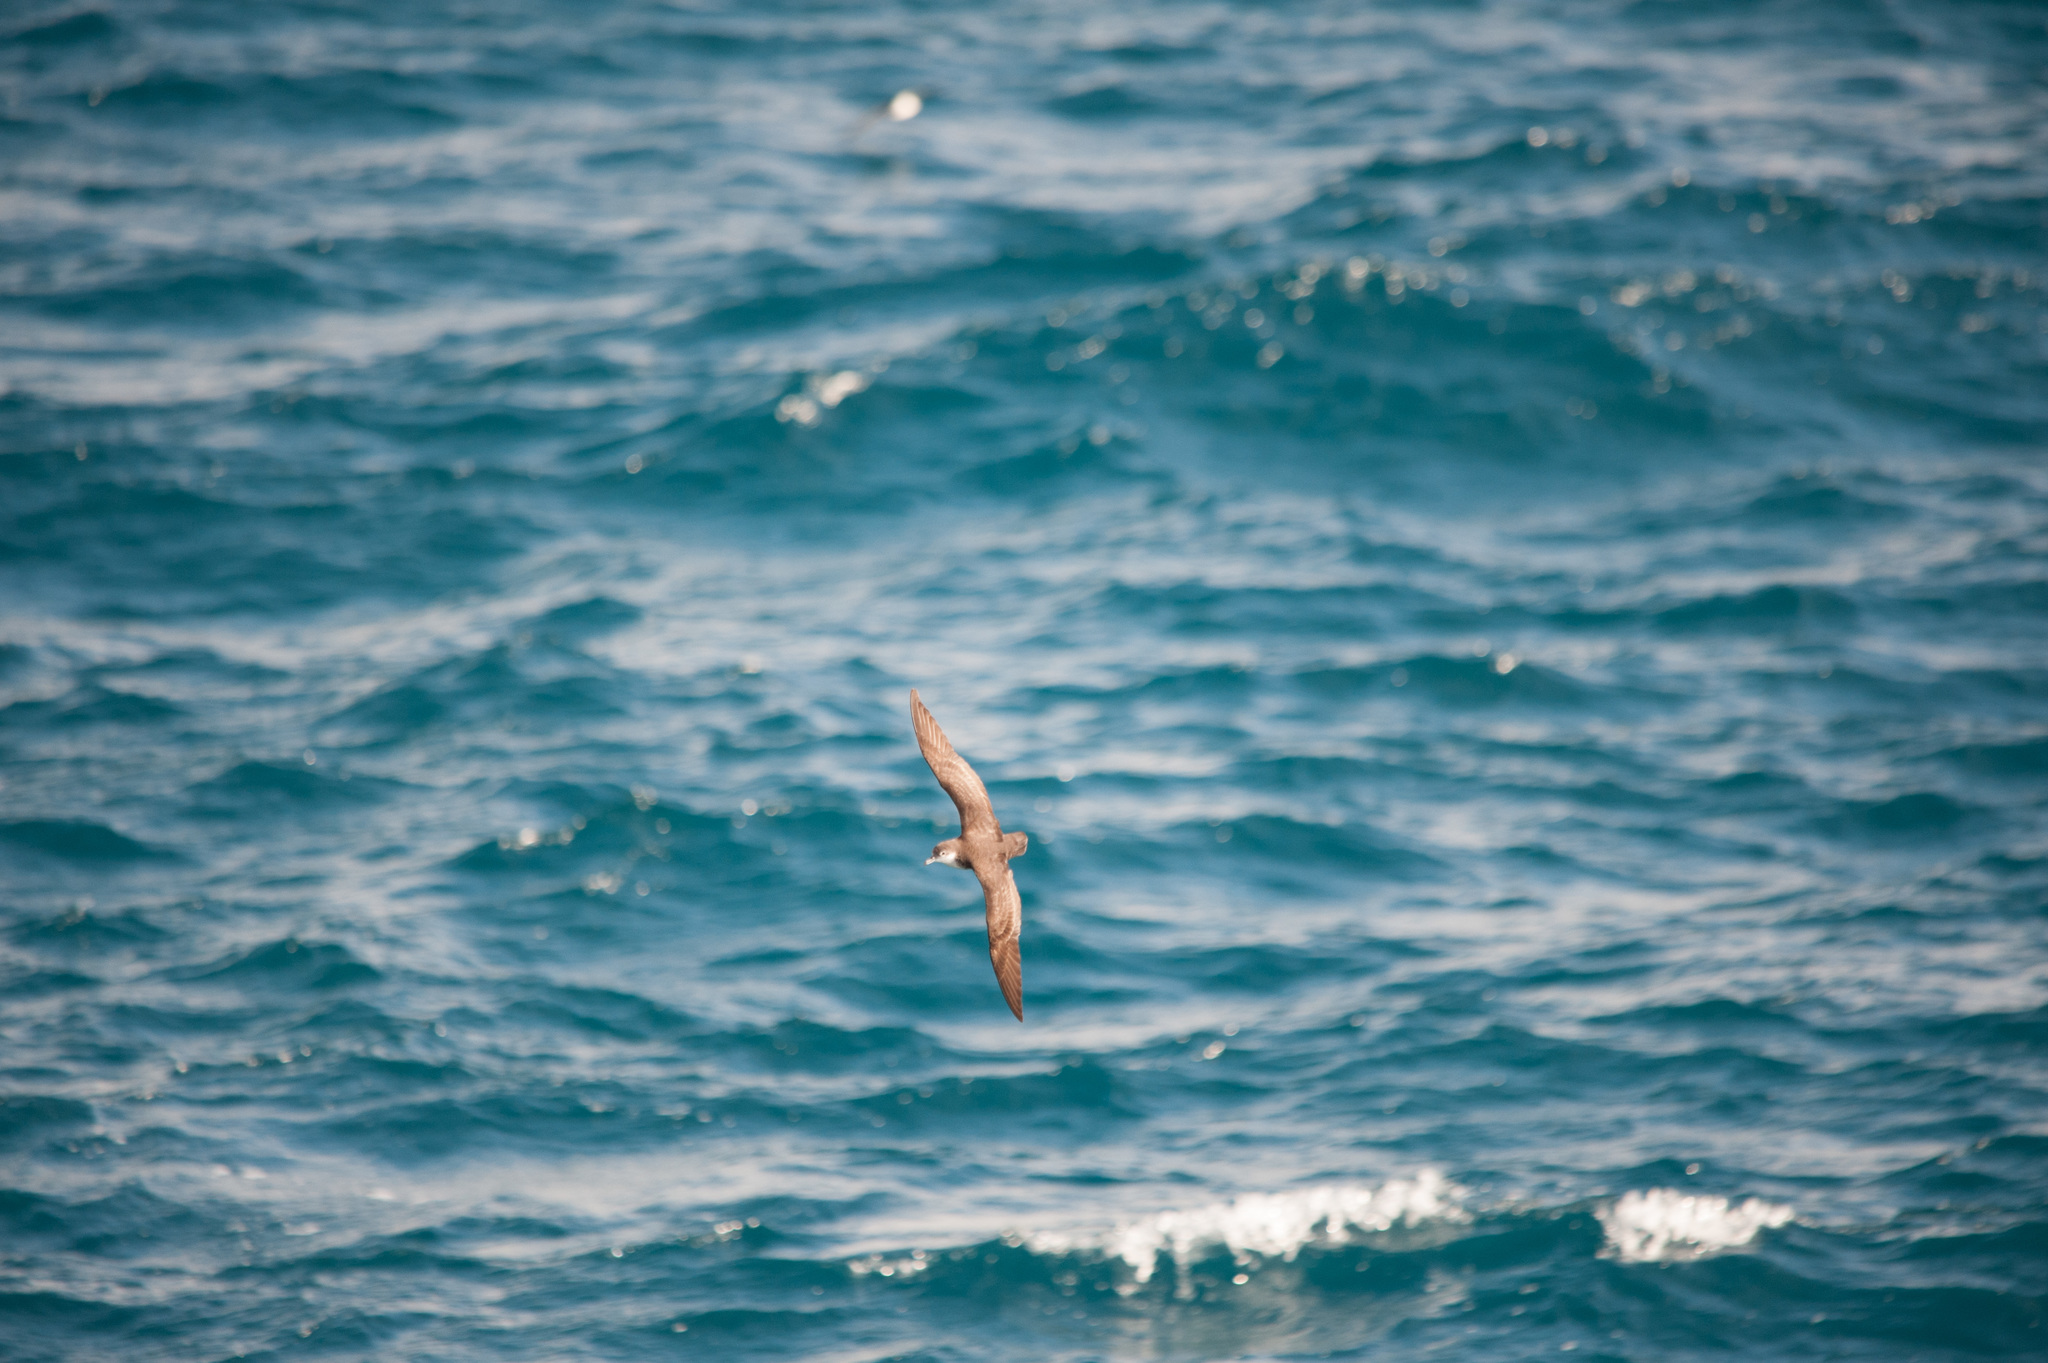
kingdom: Animalia
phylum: Chordata
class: Aves
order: Procellariiformes
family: Procellariidae
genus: Puffinus
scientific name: Puffinus subalaris
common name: Galapagos shearwater
